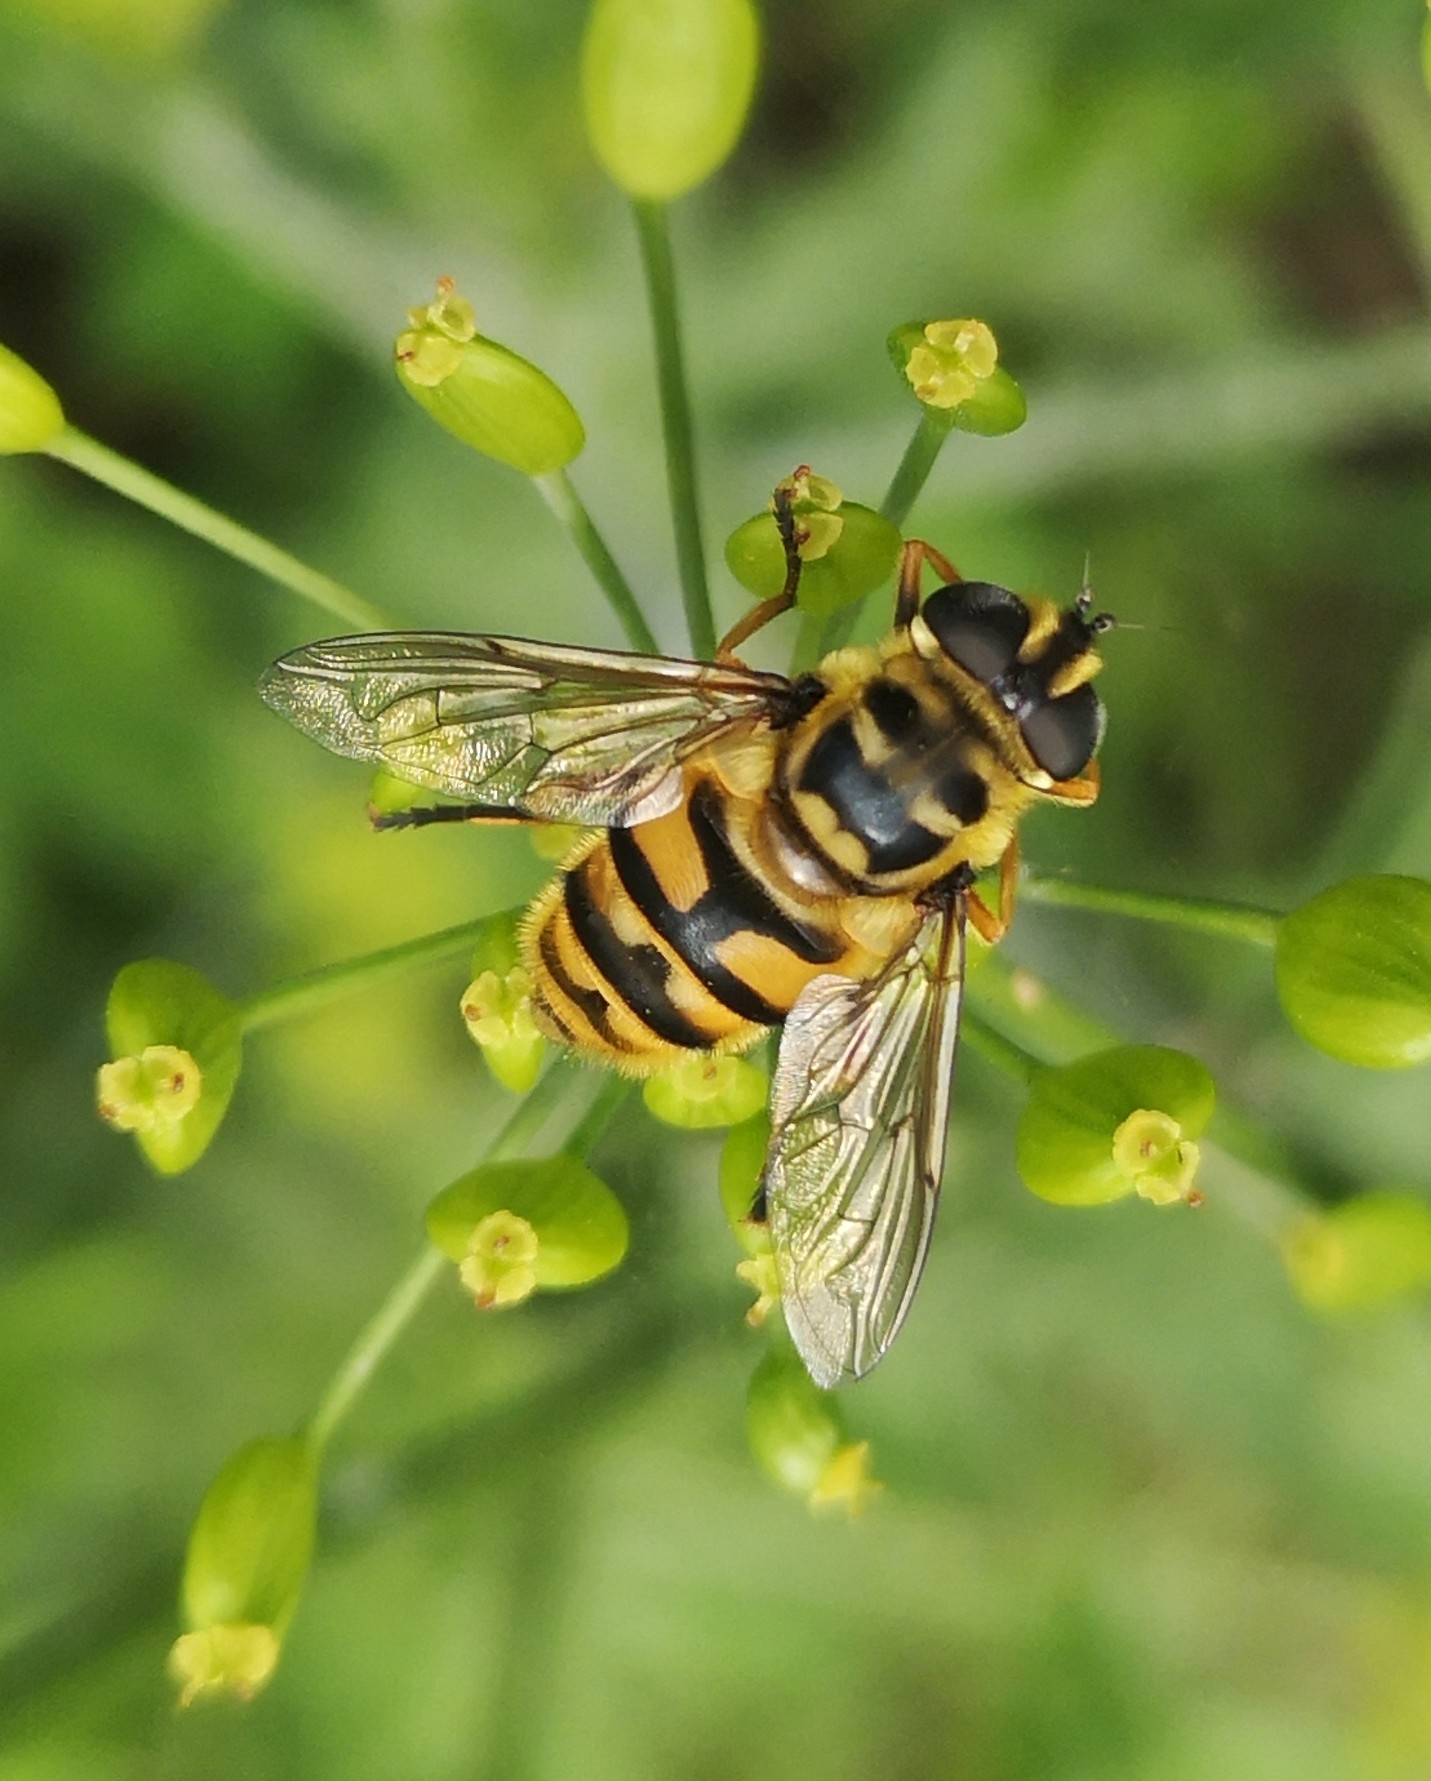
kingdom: Animalia
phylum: Arthropoda
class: Insecta
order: Diptera
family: Syrphidae
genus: Myathropa
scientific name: Myathropa florea
